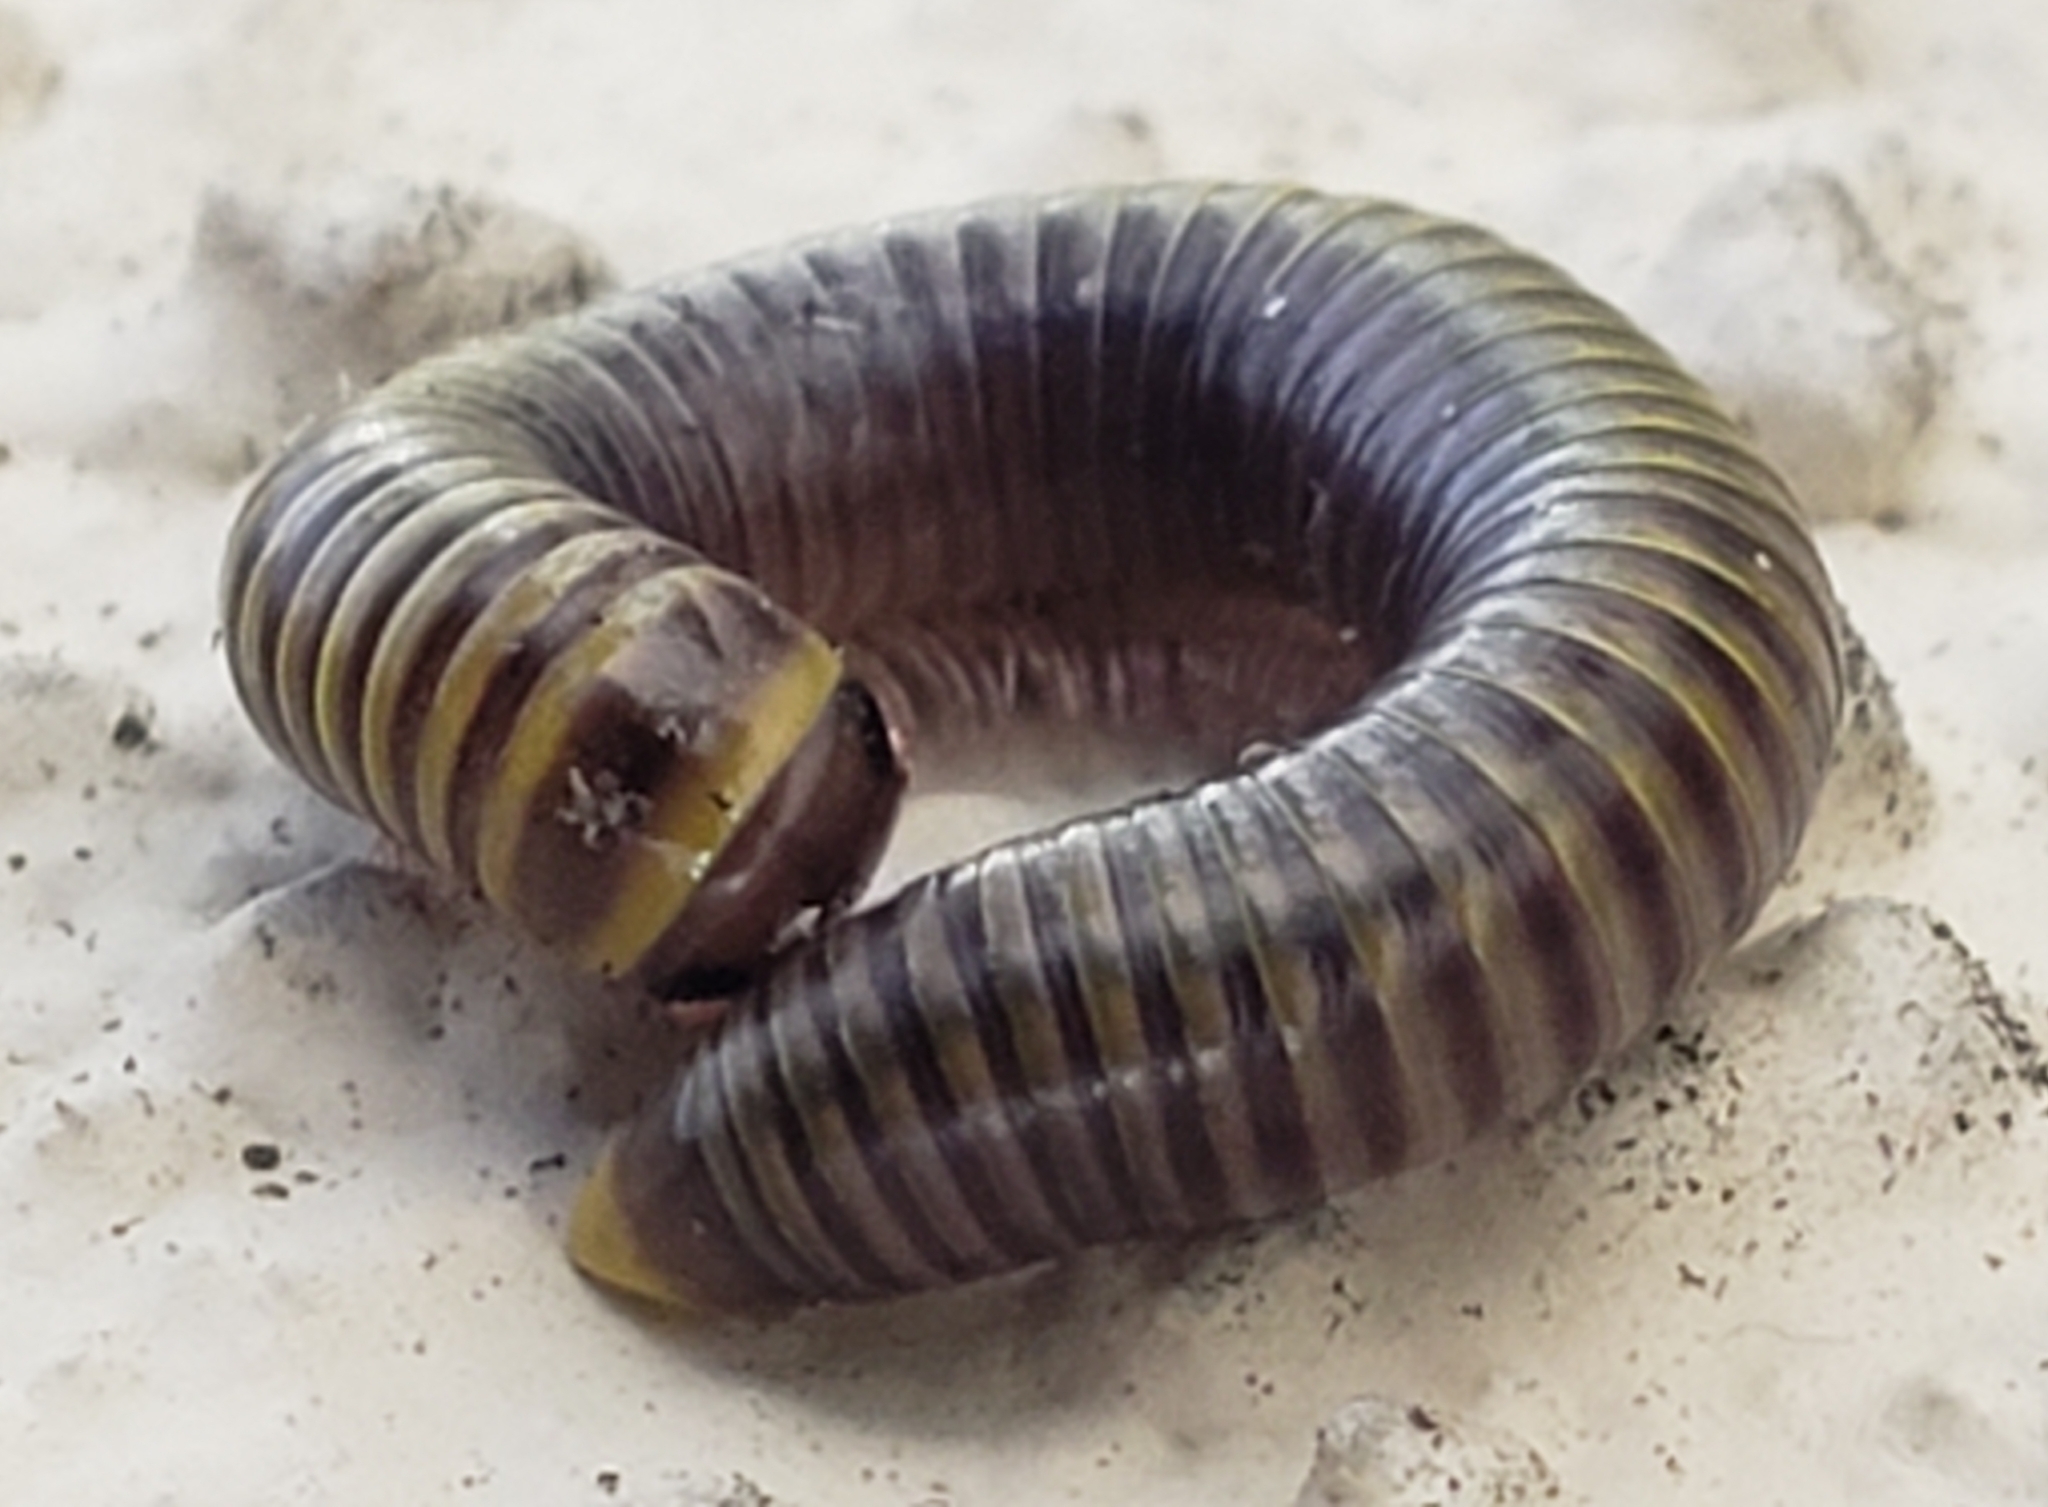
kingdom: Animalia
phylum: Arthropoda
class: Diplopoda
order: Spirobolida
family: Rhinocricidae
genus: Anadenobolus
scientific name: Anadenobolus monilicornis
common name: Caribbean millipede
